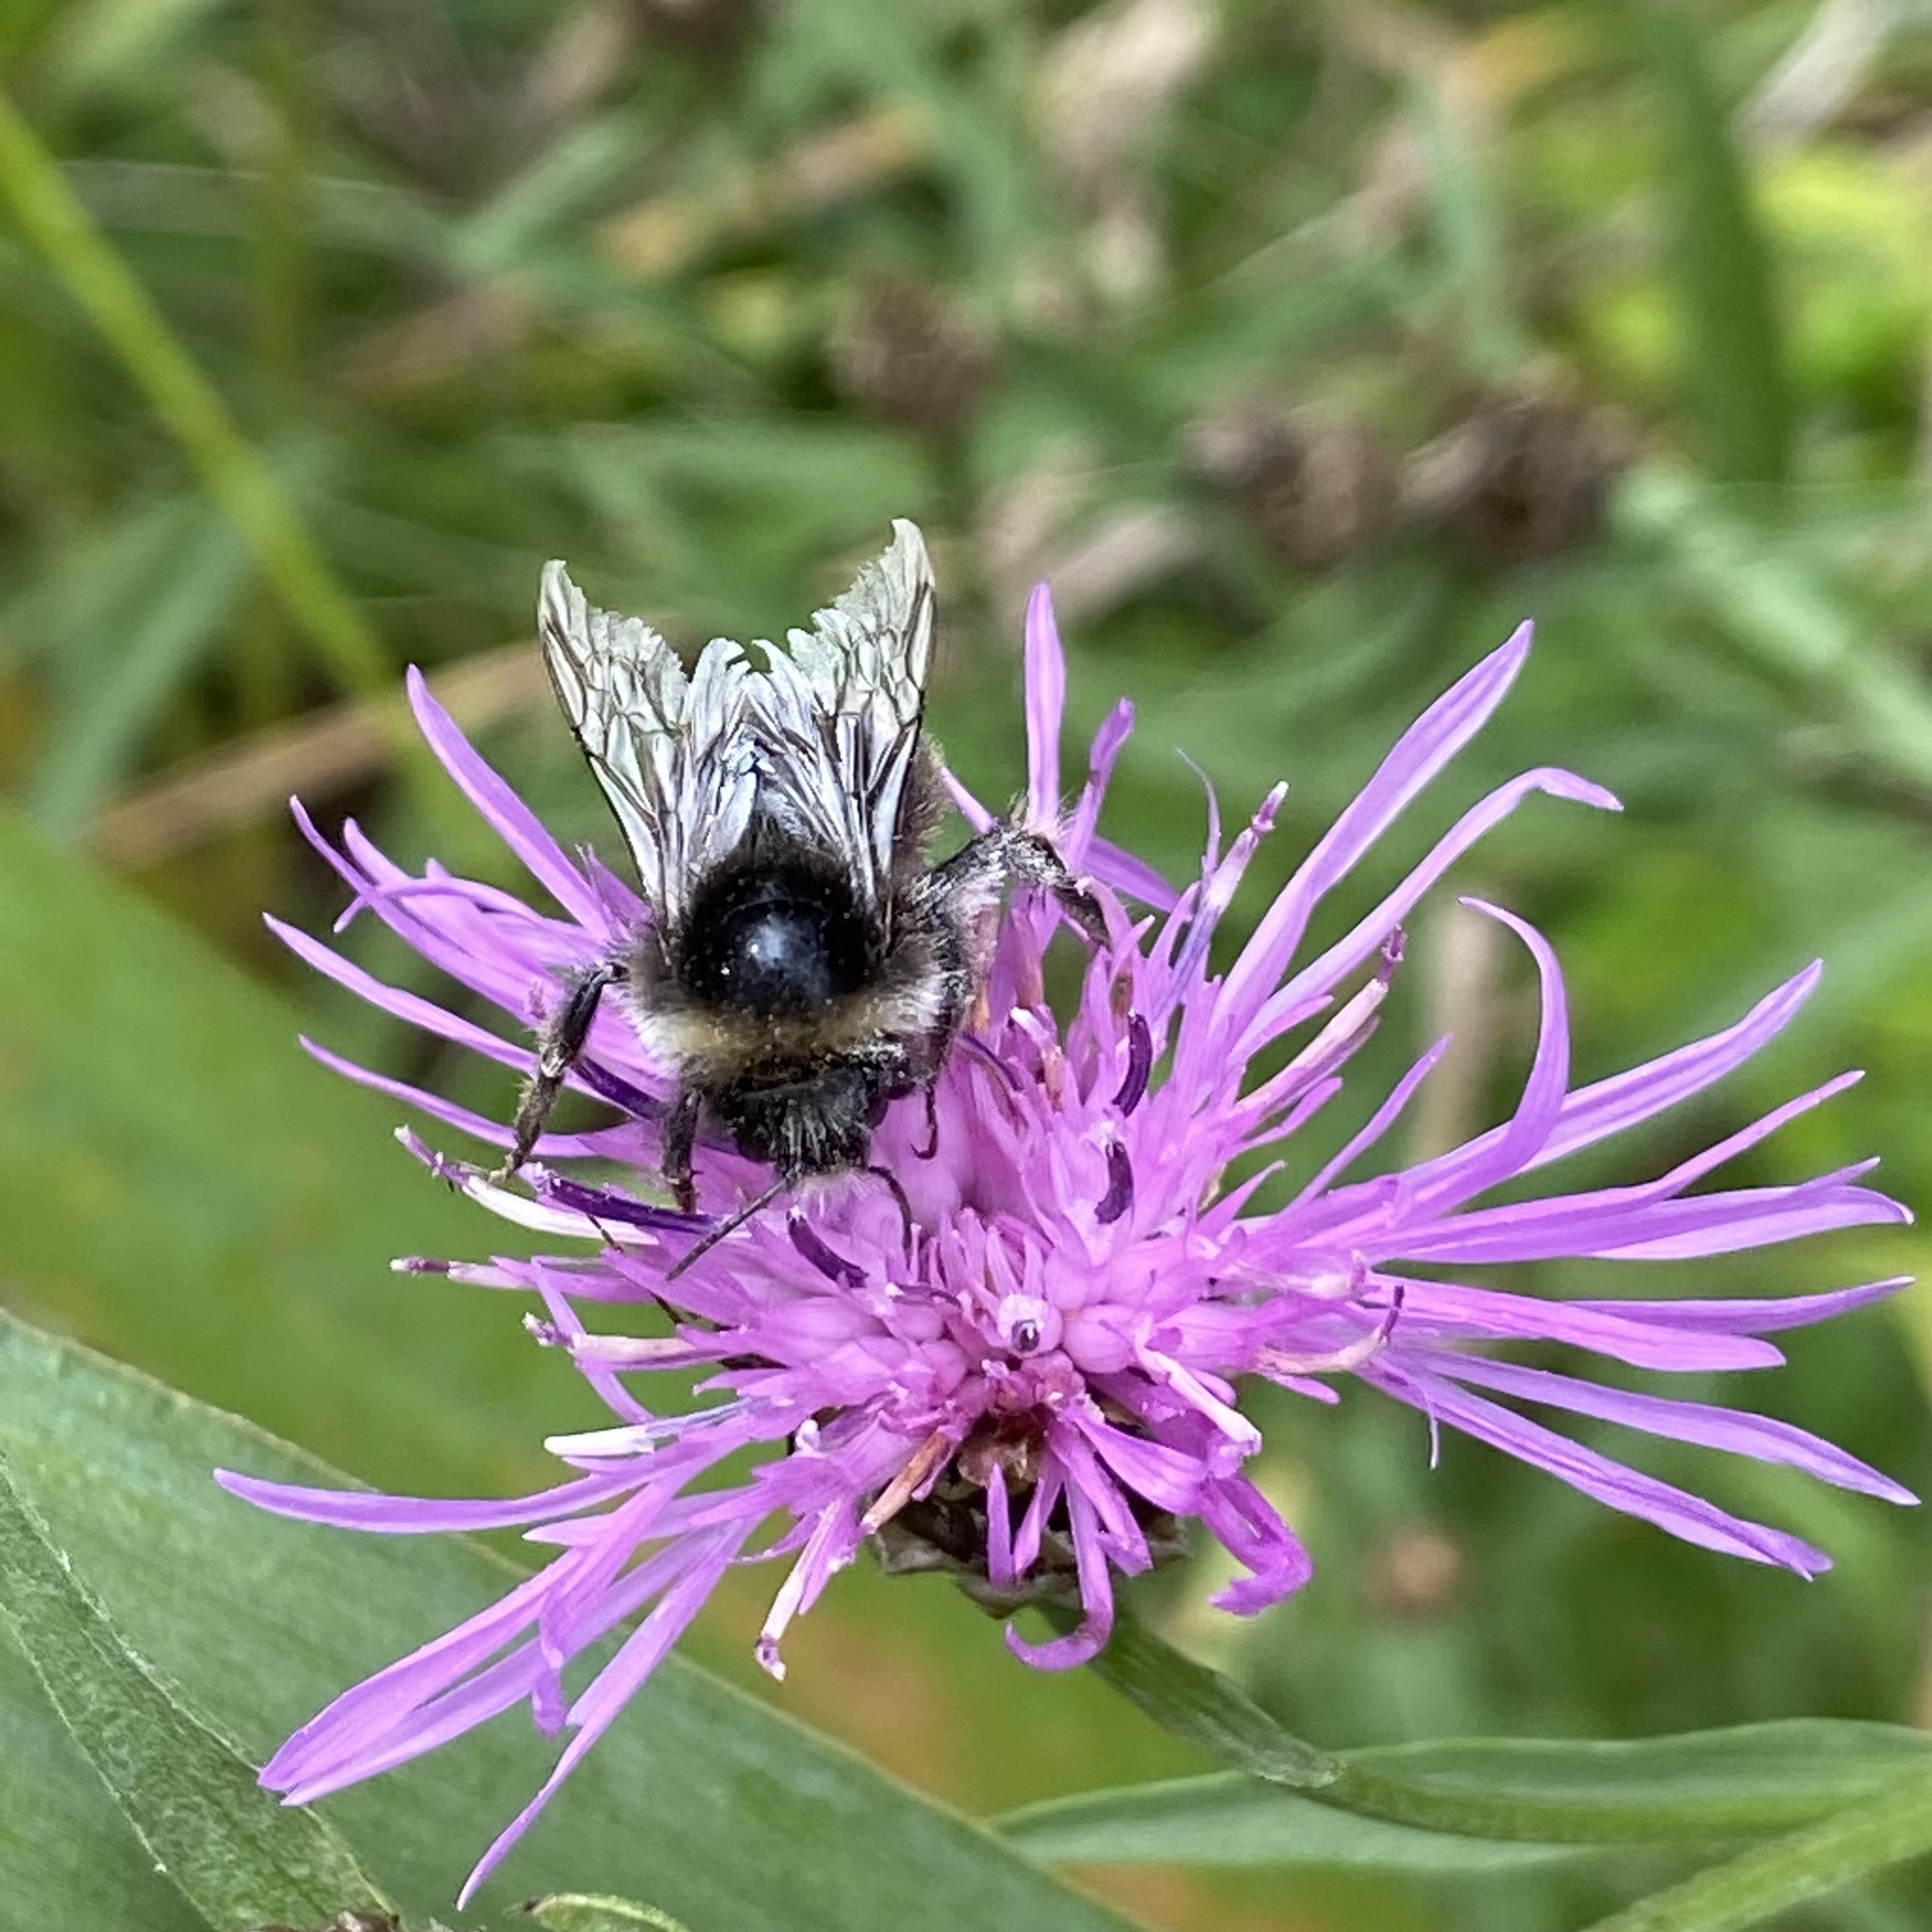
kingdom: Animalia
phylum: Arthropoda
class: Insecta
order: Hymenoptera
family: Apidae
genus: Bombus
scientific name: Bombus lapidarius
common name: Large red-tailed humble-bee
